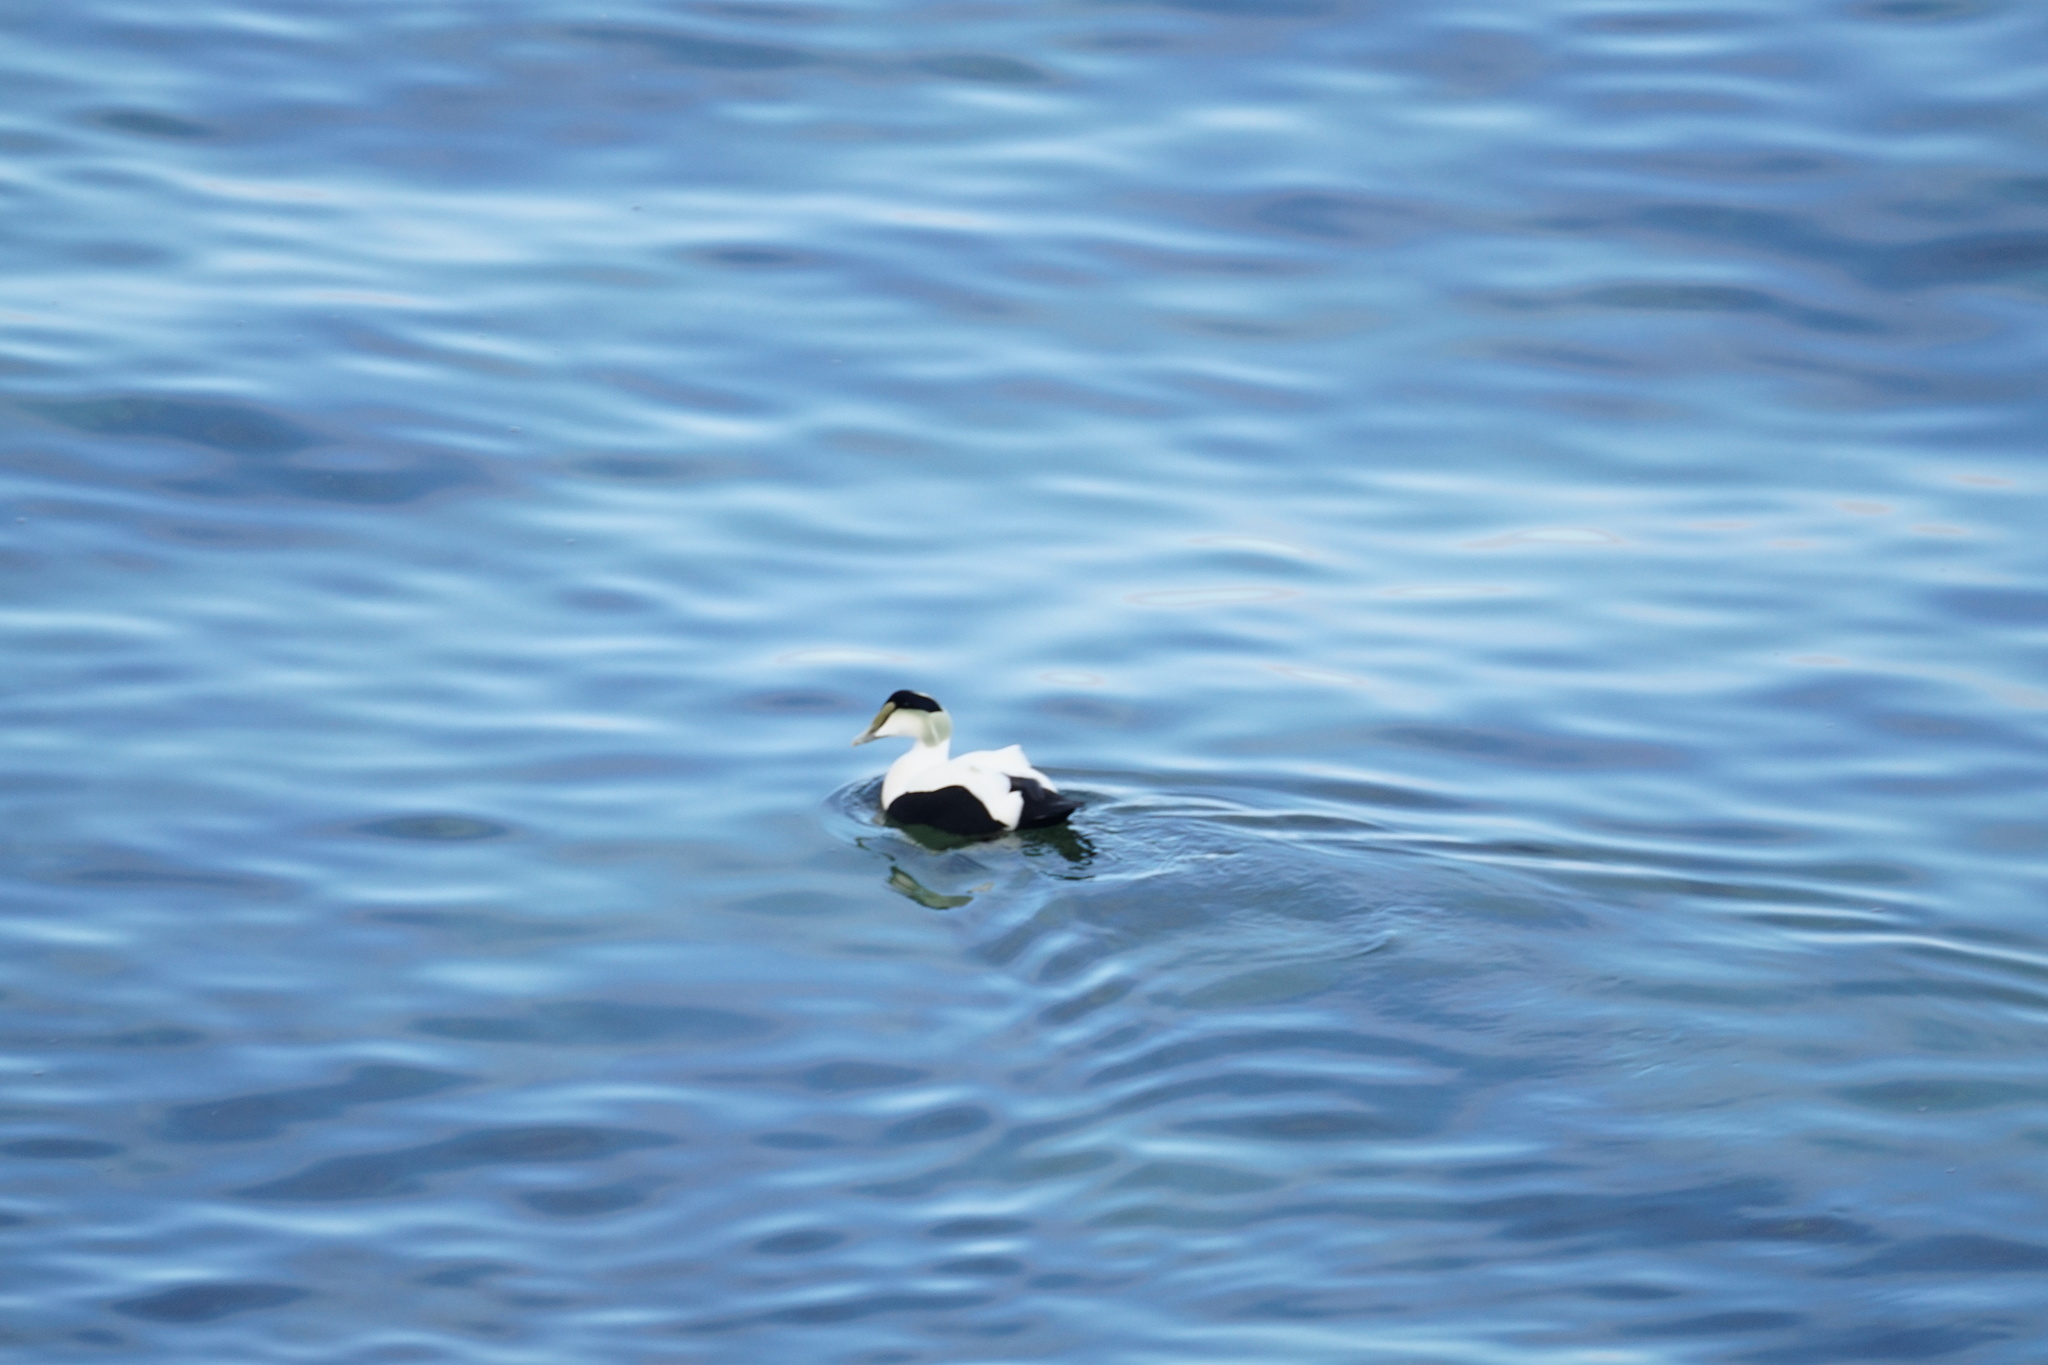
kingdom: Animalia
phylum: Chordata
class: Aves
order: Anseriformes
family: Anatidae
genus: Somateria
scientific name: Somateria mollissima
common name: Common eider
